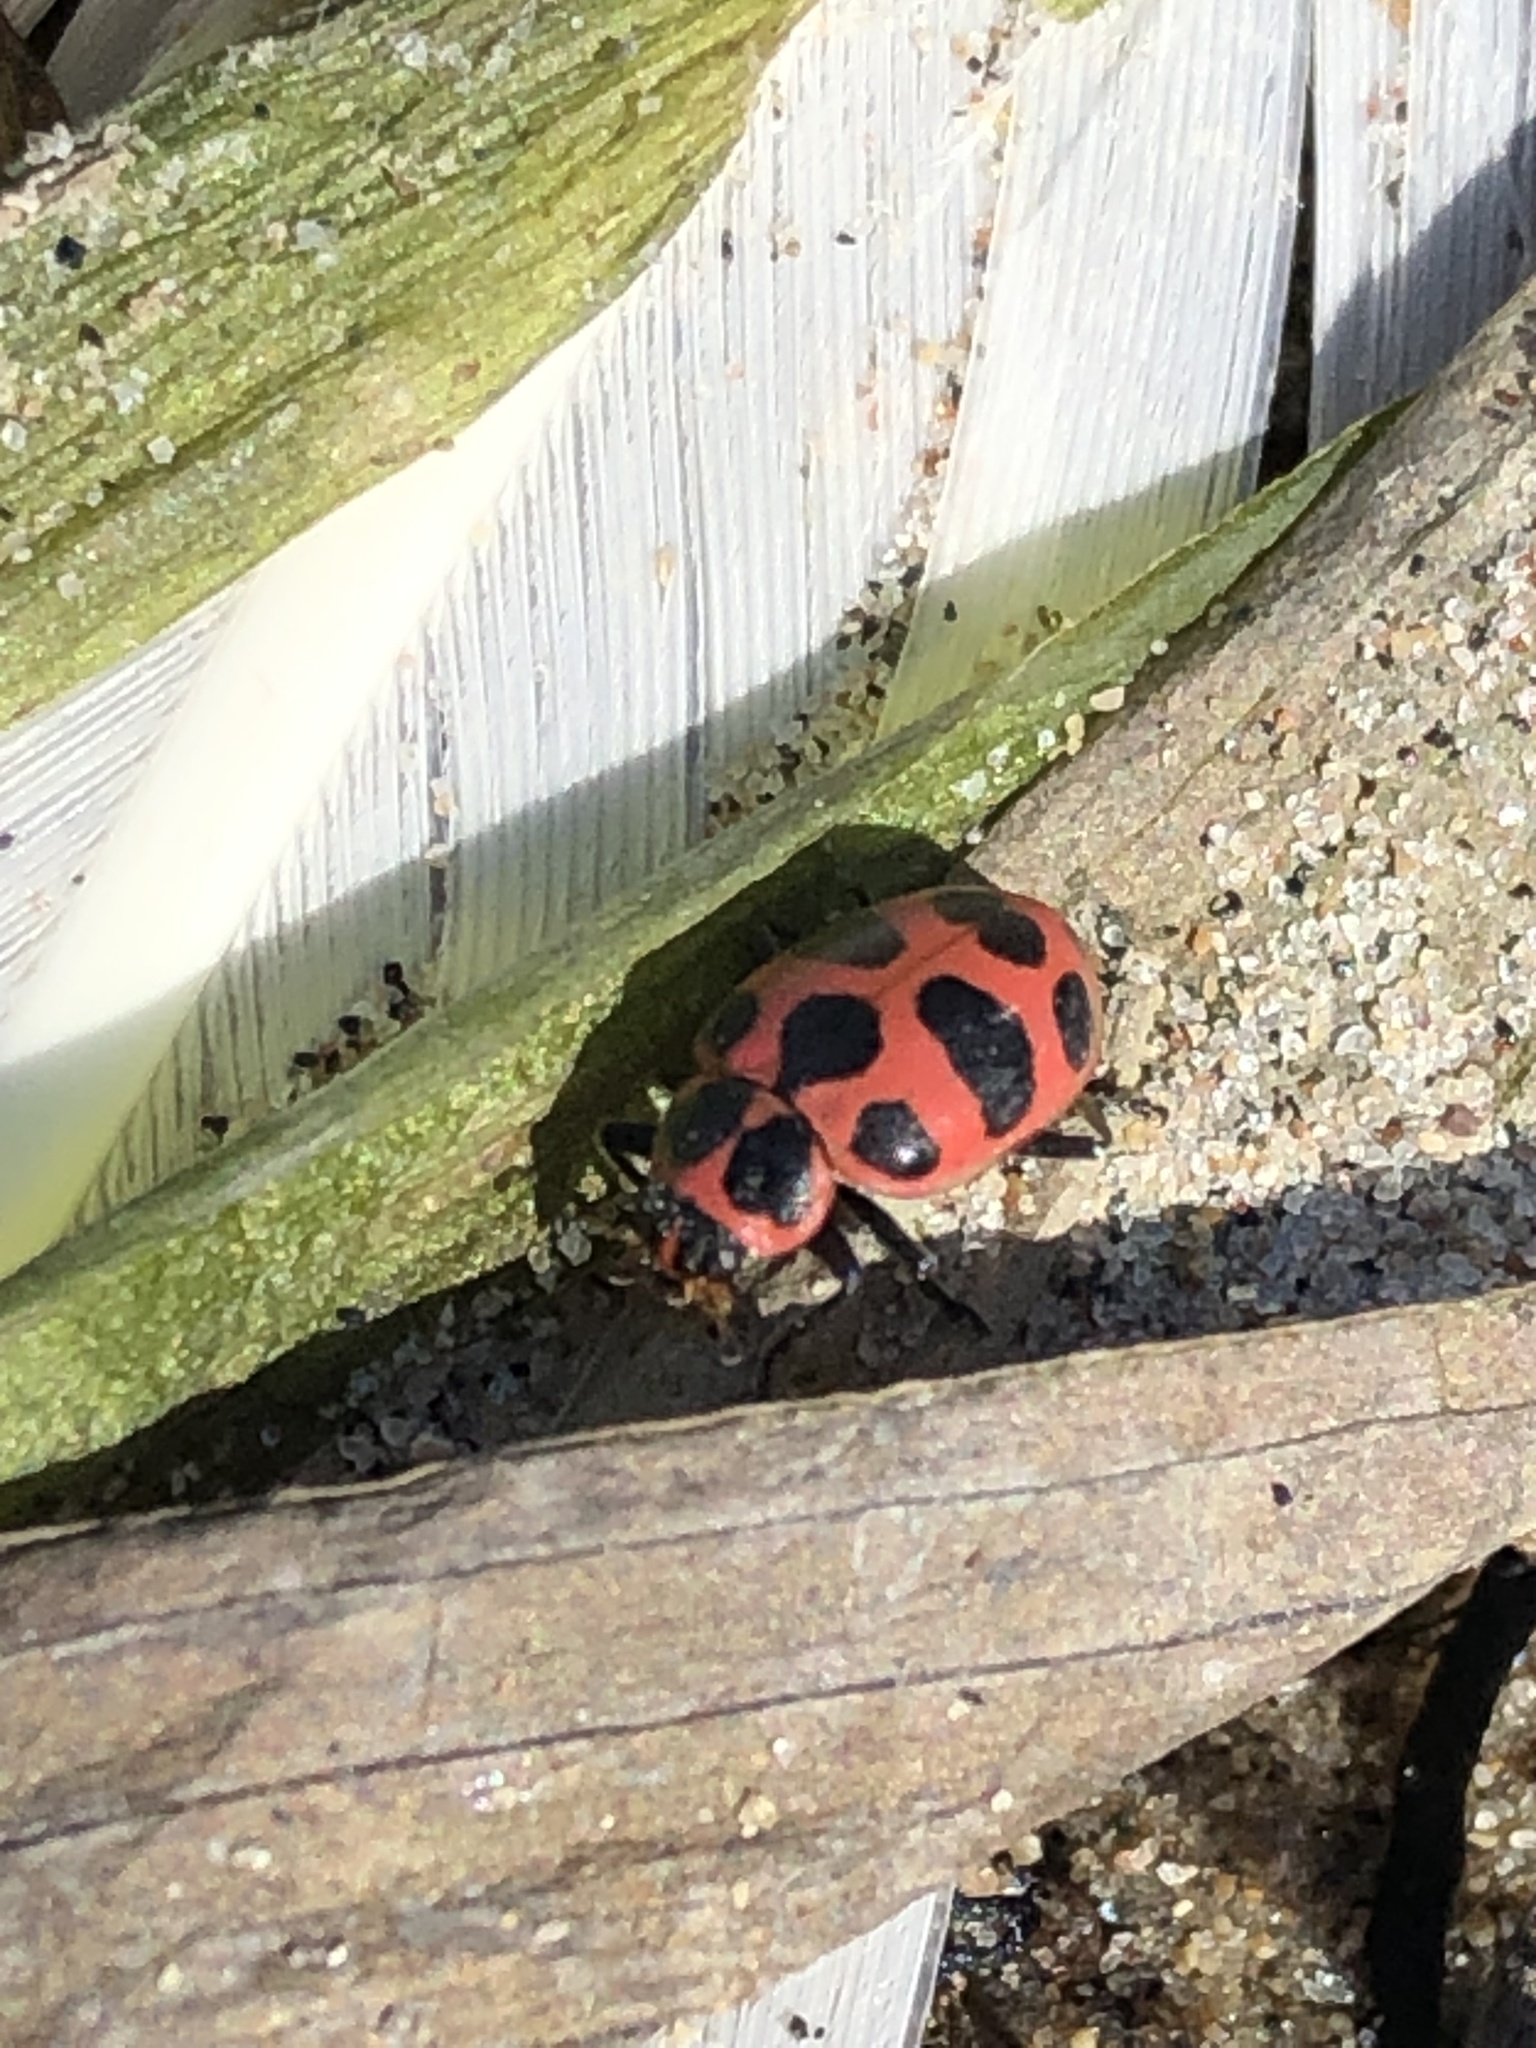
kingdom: Animalia
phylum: Arthropoda
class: Insecta
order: Coleoptera
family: Coccinellidae
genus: Coleomegilla
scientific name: Coleomegilla maculata
